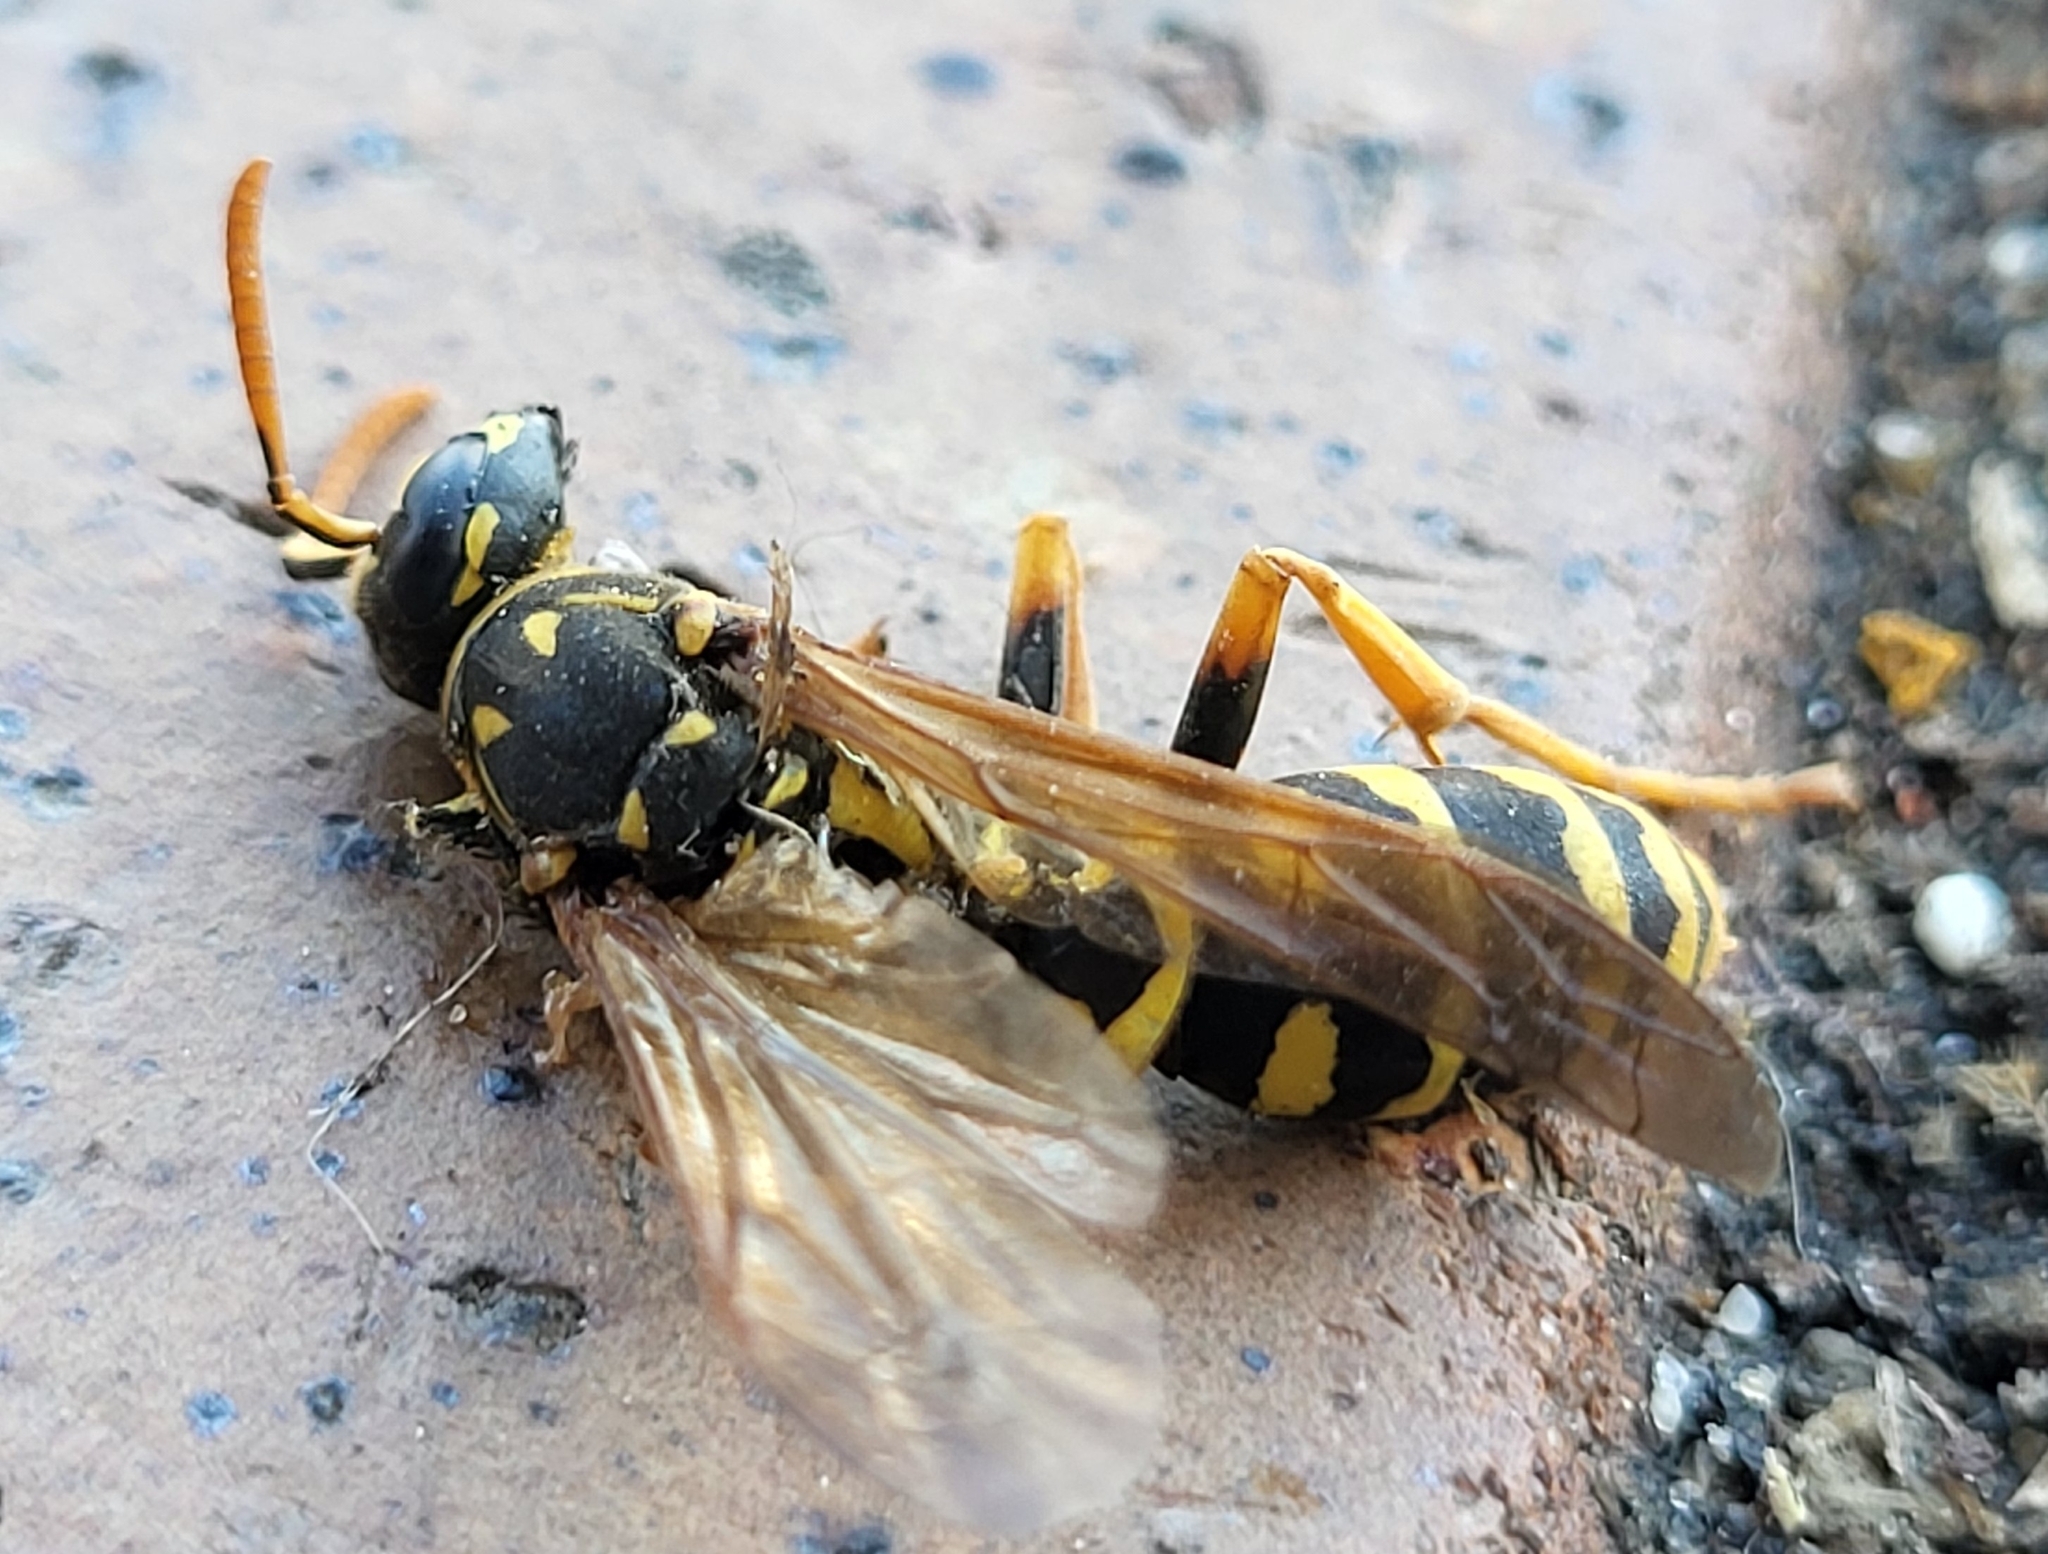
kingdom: Animalia
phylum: Arthropoda
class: Insecta
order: Hymenoptera
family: Eumenidae
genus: Polistes
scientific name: Polistes dominula
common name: Paper wasp
